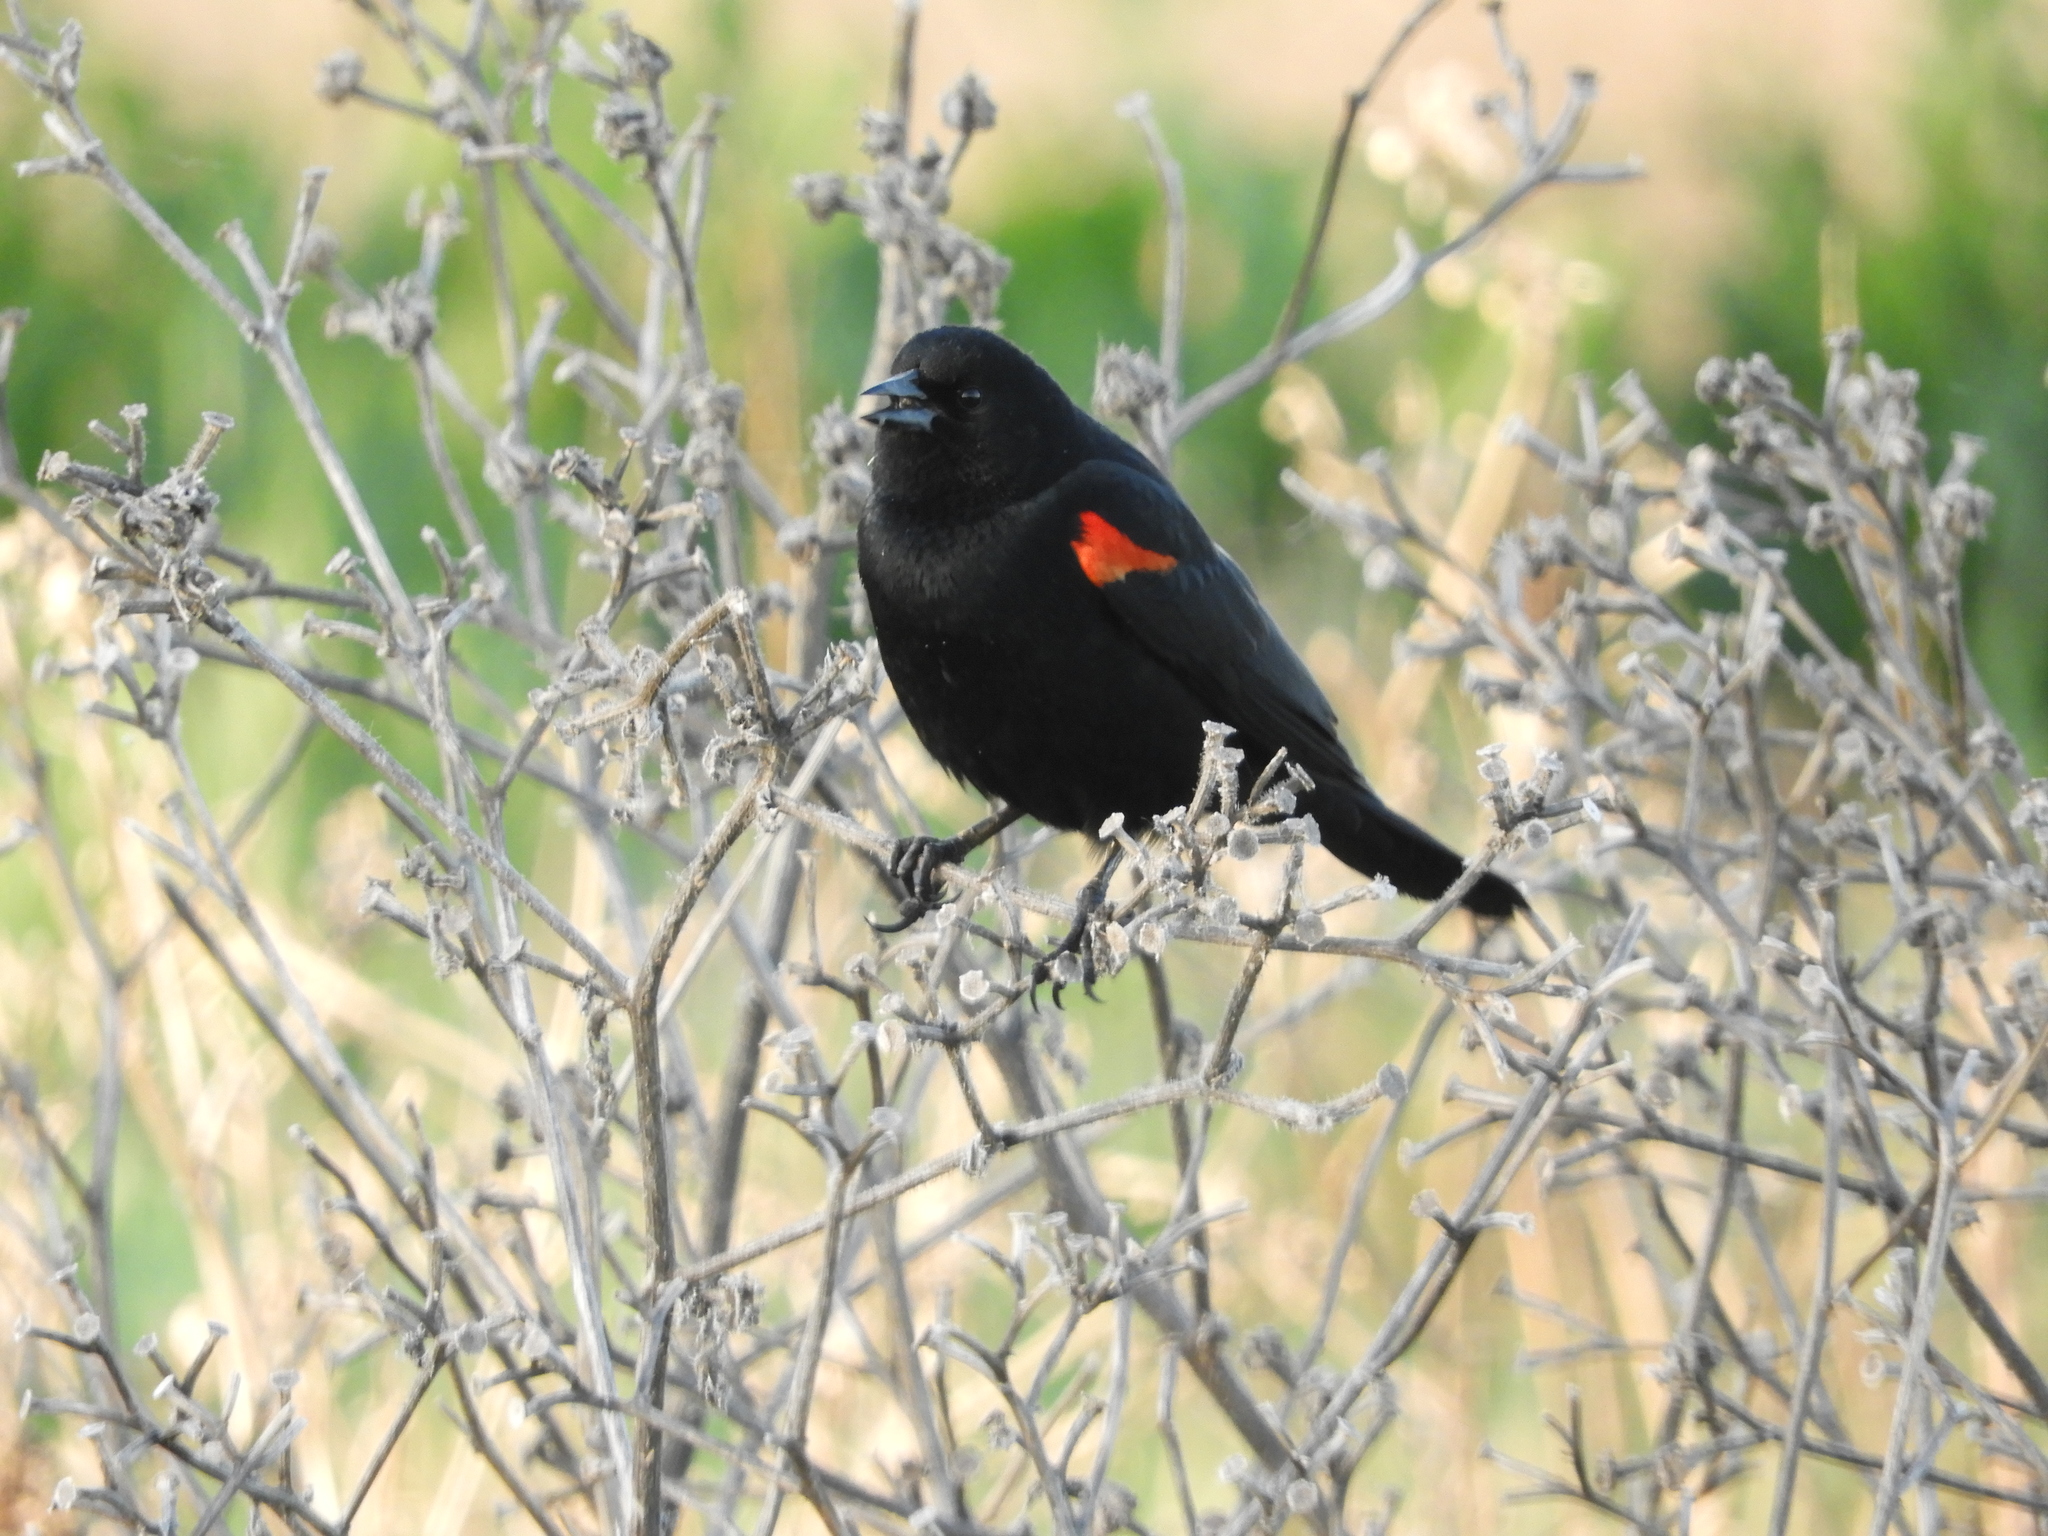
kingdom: Animalia
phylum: Chordata
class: Aves
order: Passeriformes
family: Icteridae
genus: Agelaius
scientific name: Agelaius phoeniceus
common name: Red-winged blackbird
